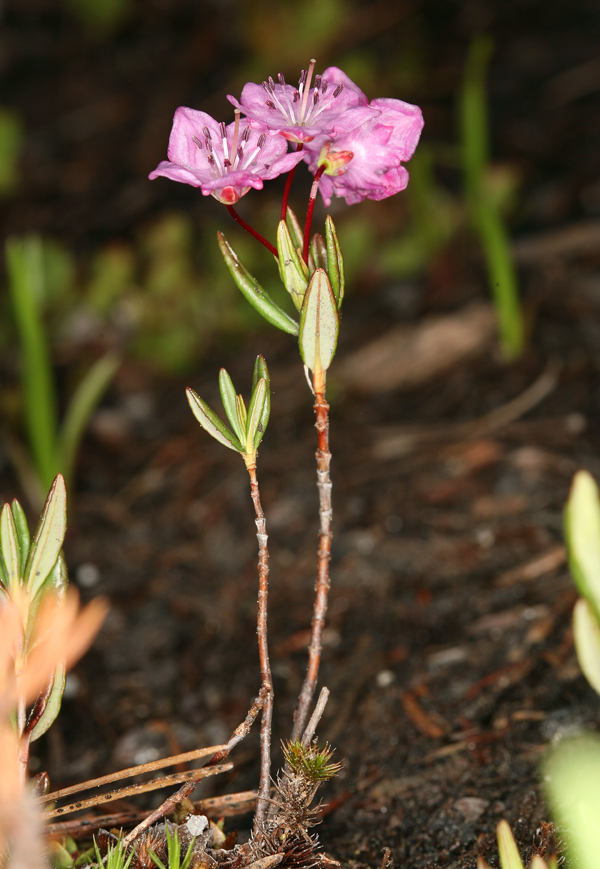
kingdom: Plantae
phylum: Tracheophyta
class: Magnoliopsida
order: Ericales
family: Ericaceae
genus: Kalmia
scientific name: Kalmia microphylla
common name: Alpine bog laurel
